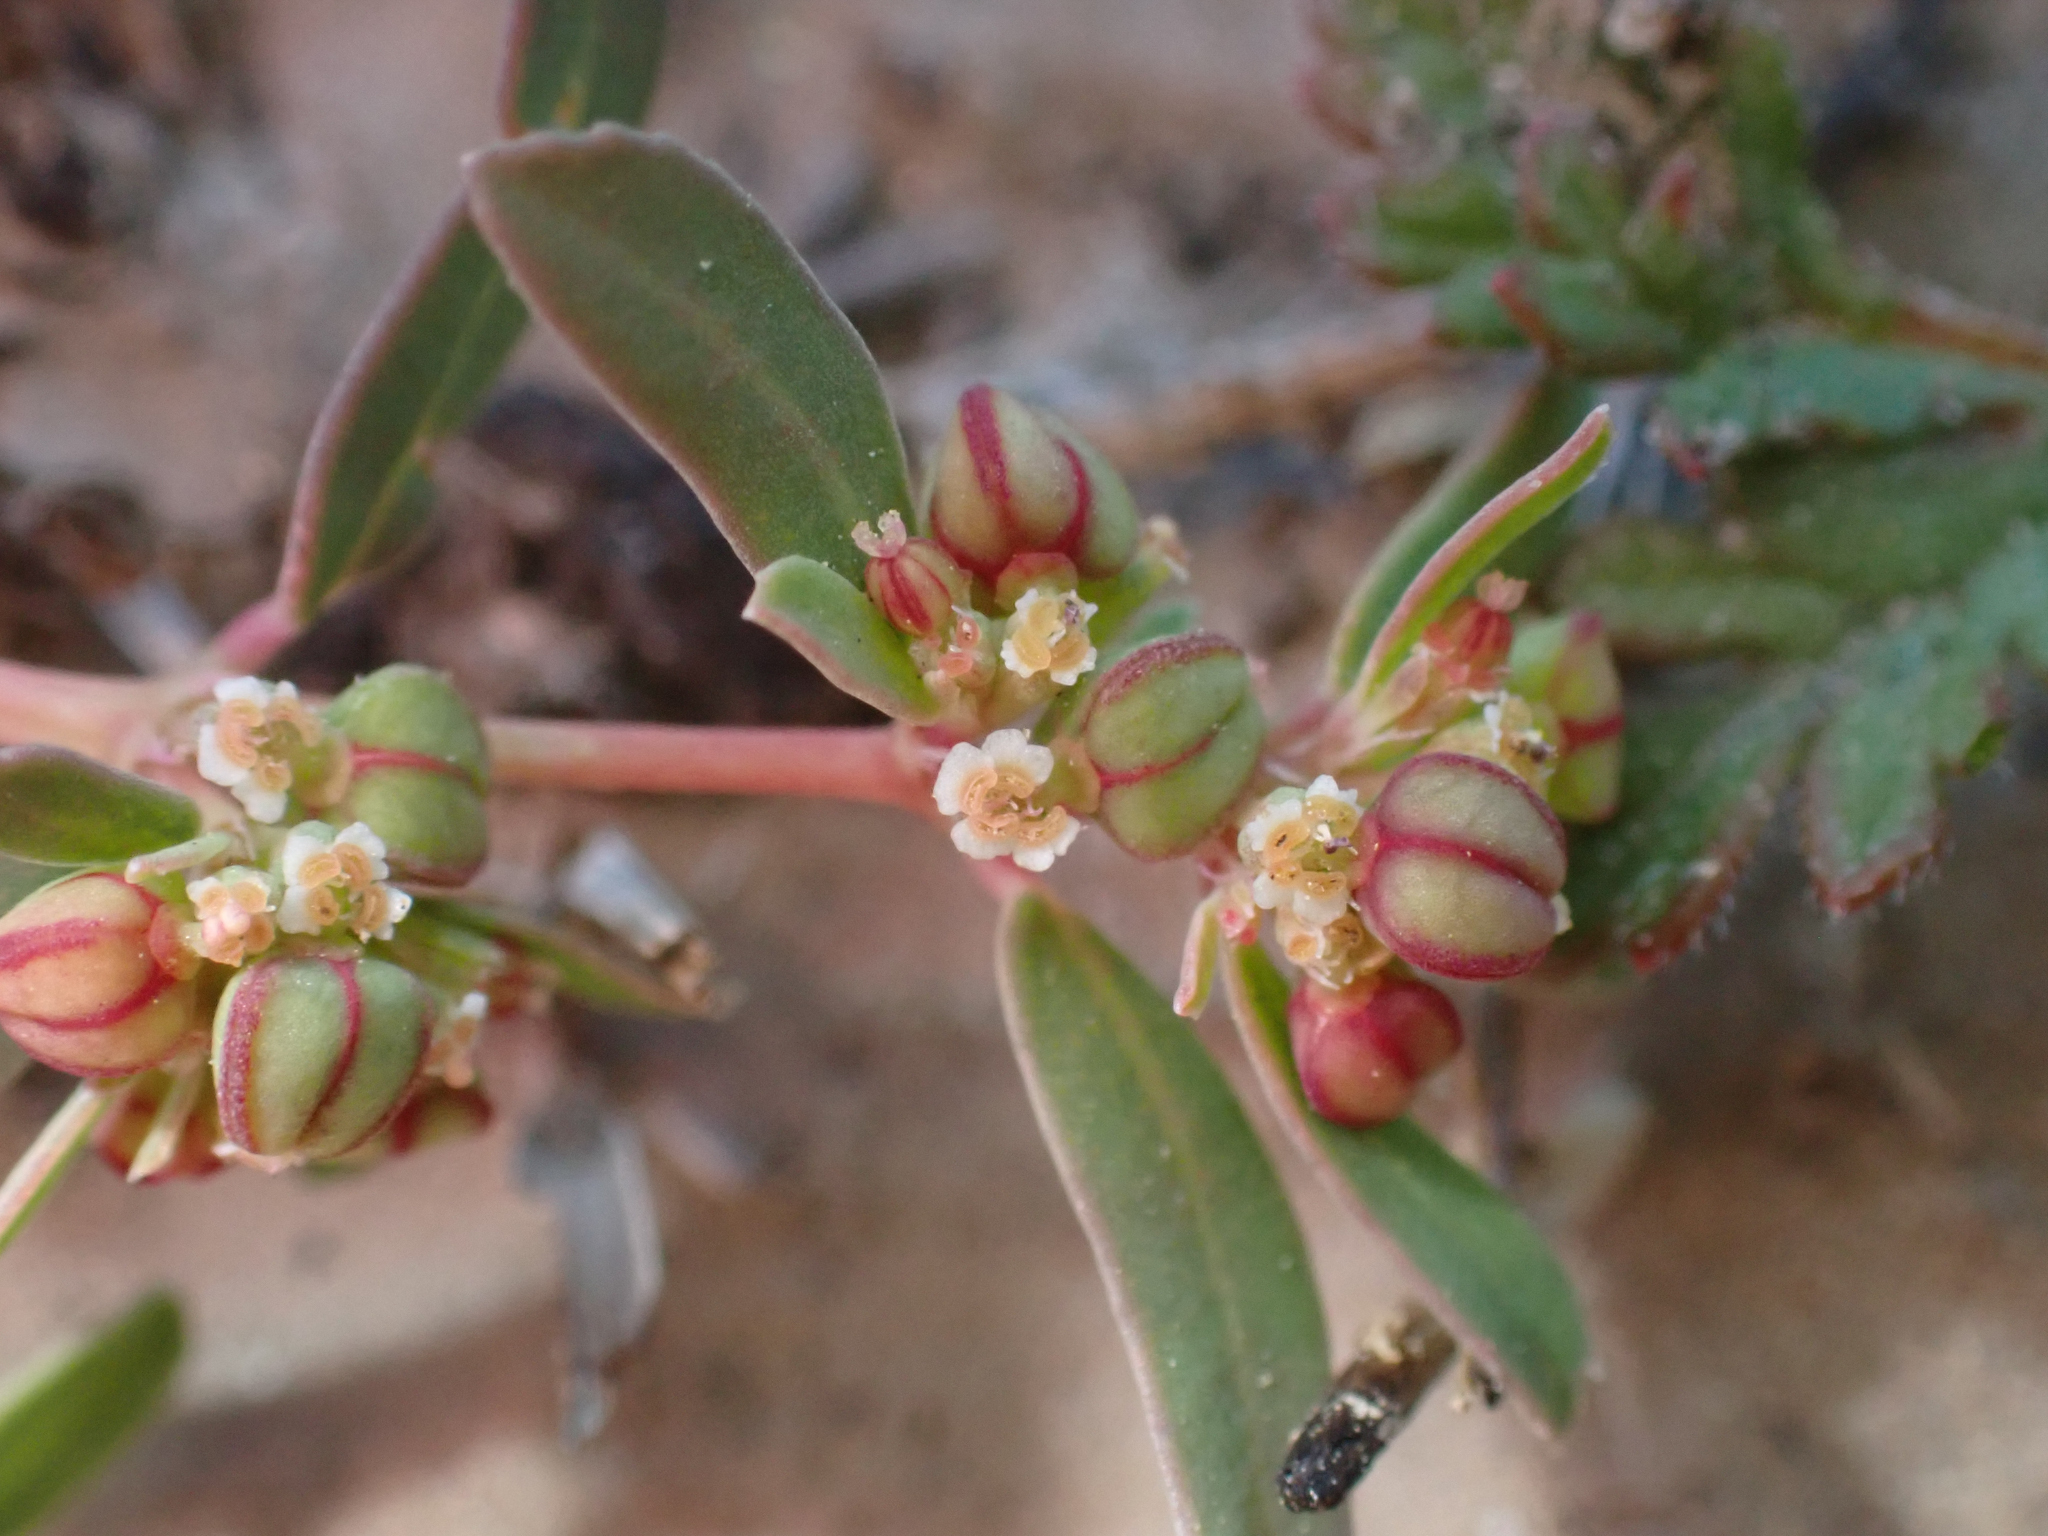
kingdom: Plantae
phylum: Tracheophyta
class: Magnoliopsida
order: Malpighiales
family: Euphorbiaceae
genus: Euphorbia
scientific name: Euphorbia serpillifolia
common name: Thyme-leaf spurge
